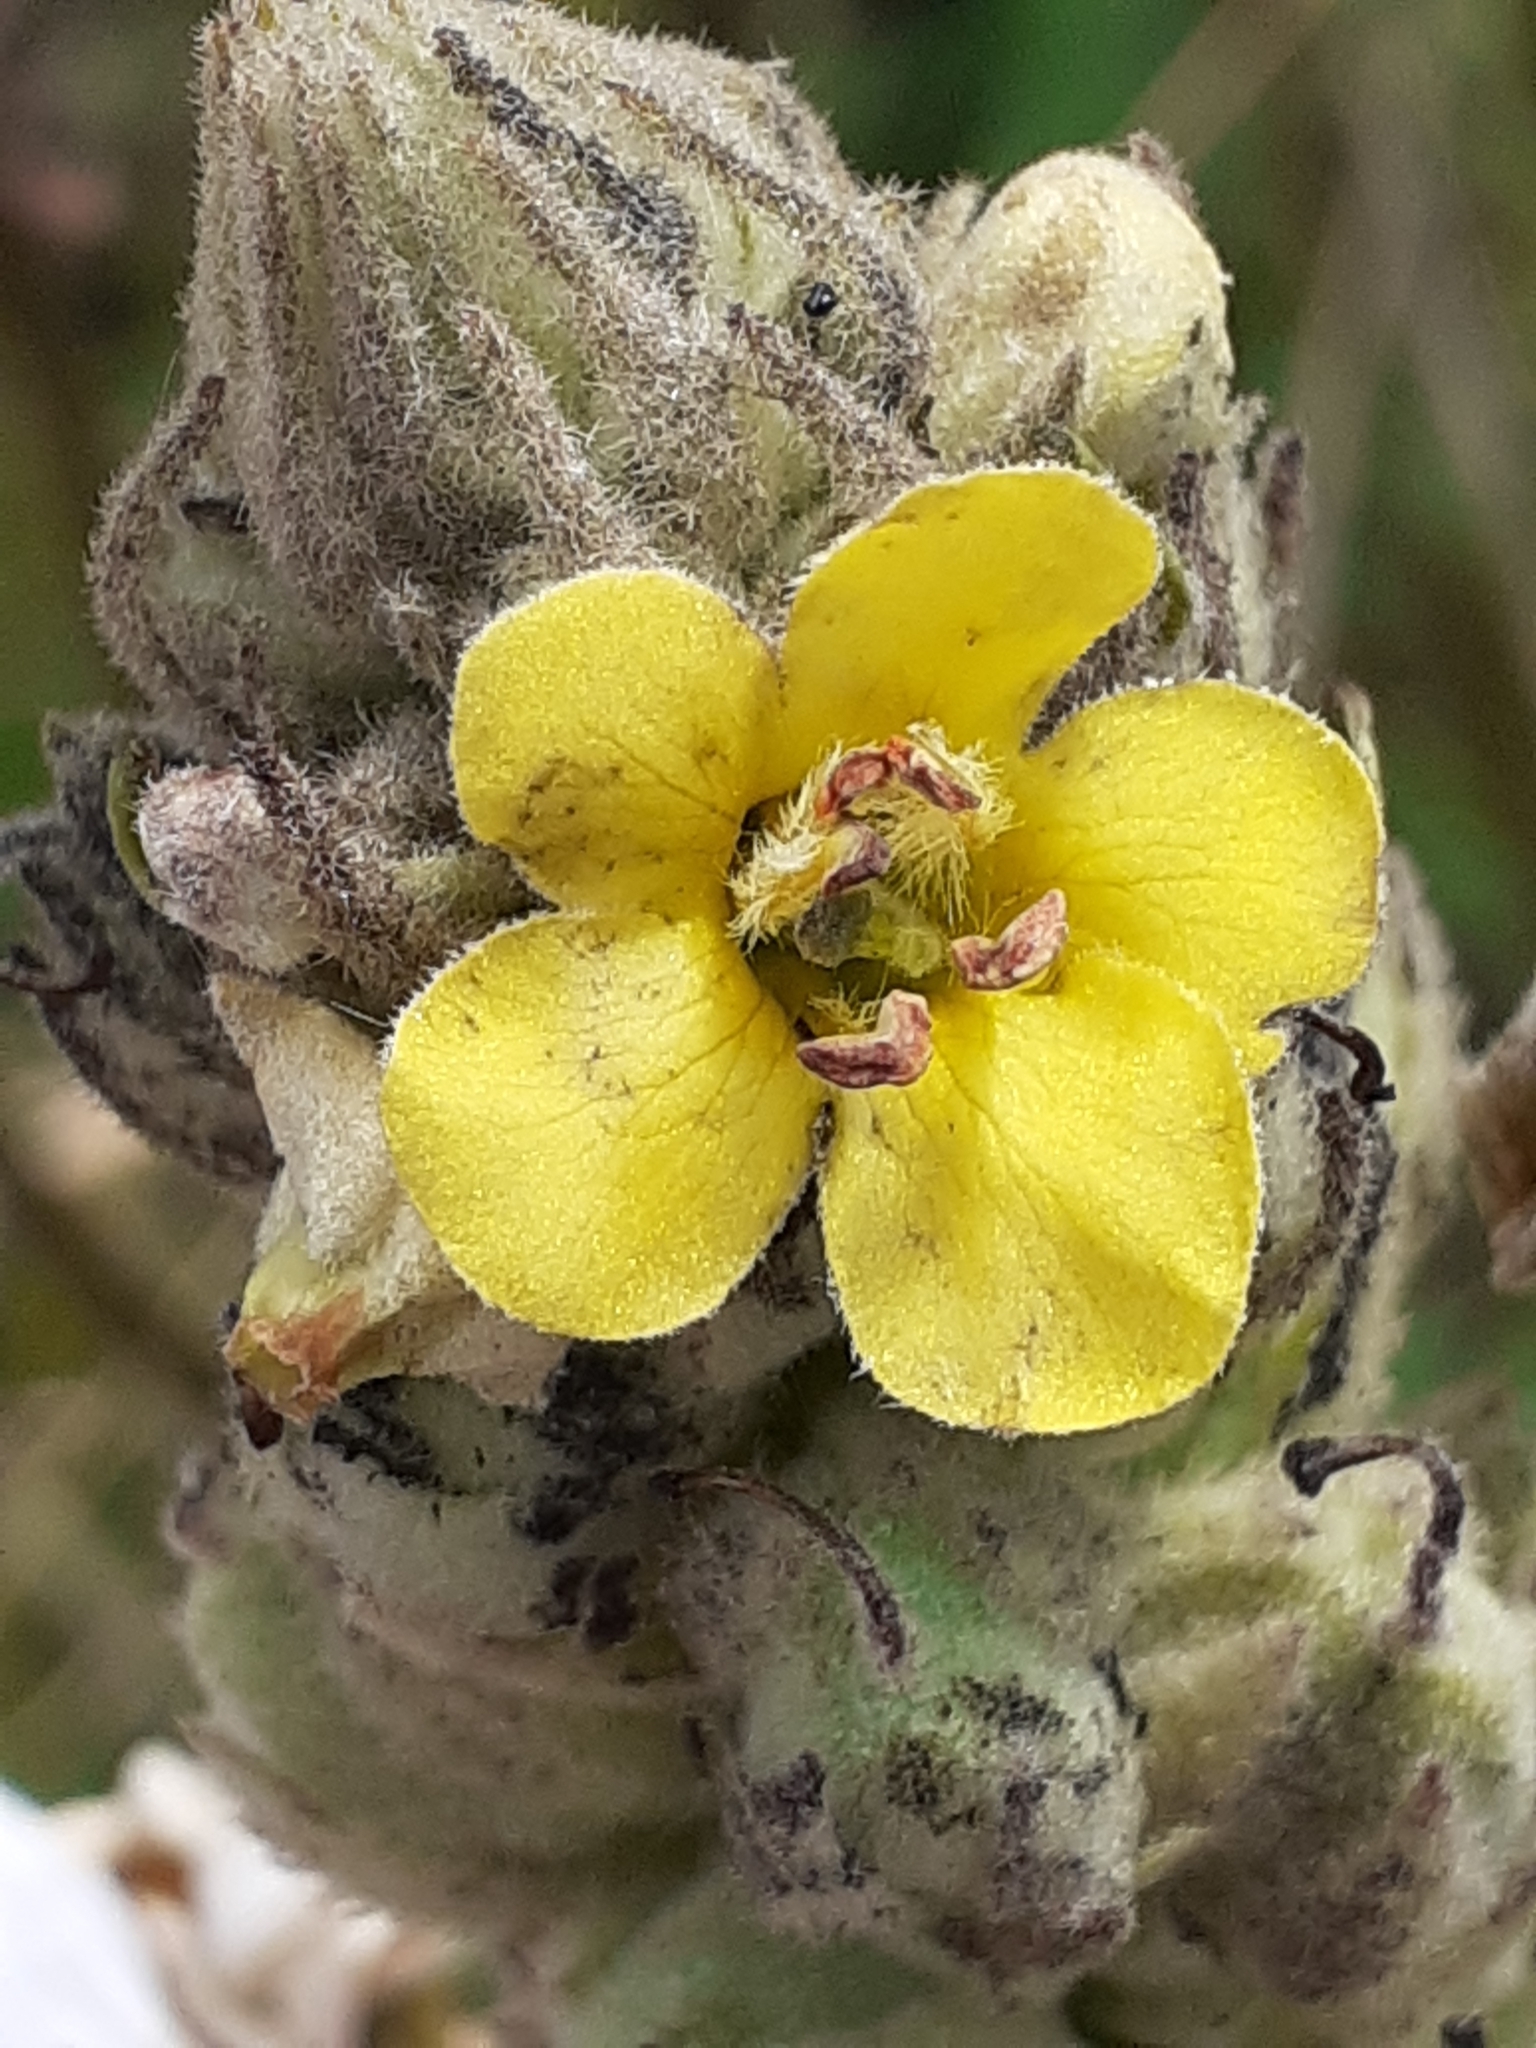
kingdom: Plantae
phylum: Tracheophyta
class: Magnoliopsida
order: Lamiales
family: Scrophulariaceae
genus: Verbascum
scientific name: Verbascum thapsus
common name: Common mullein
